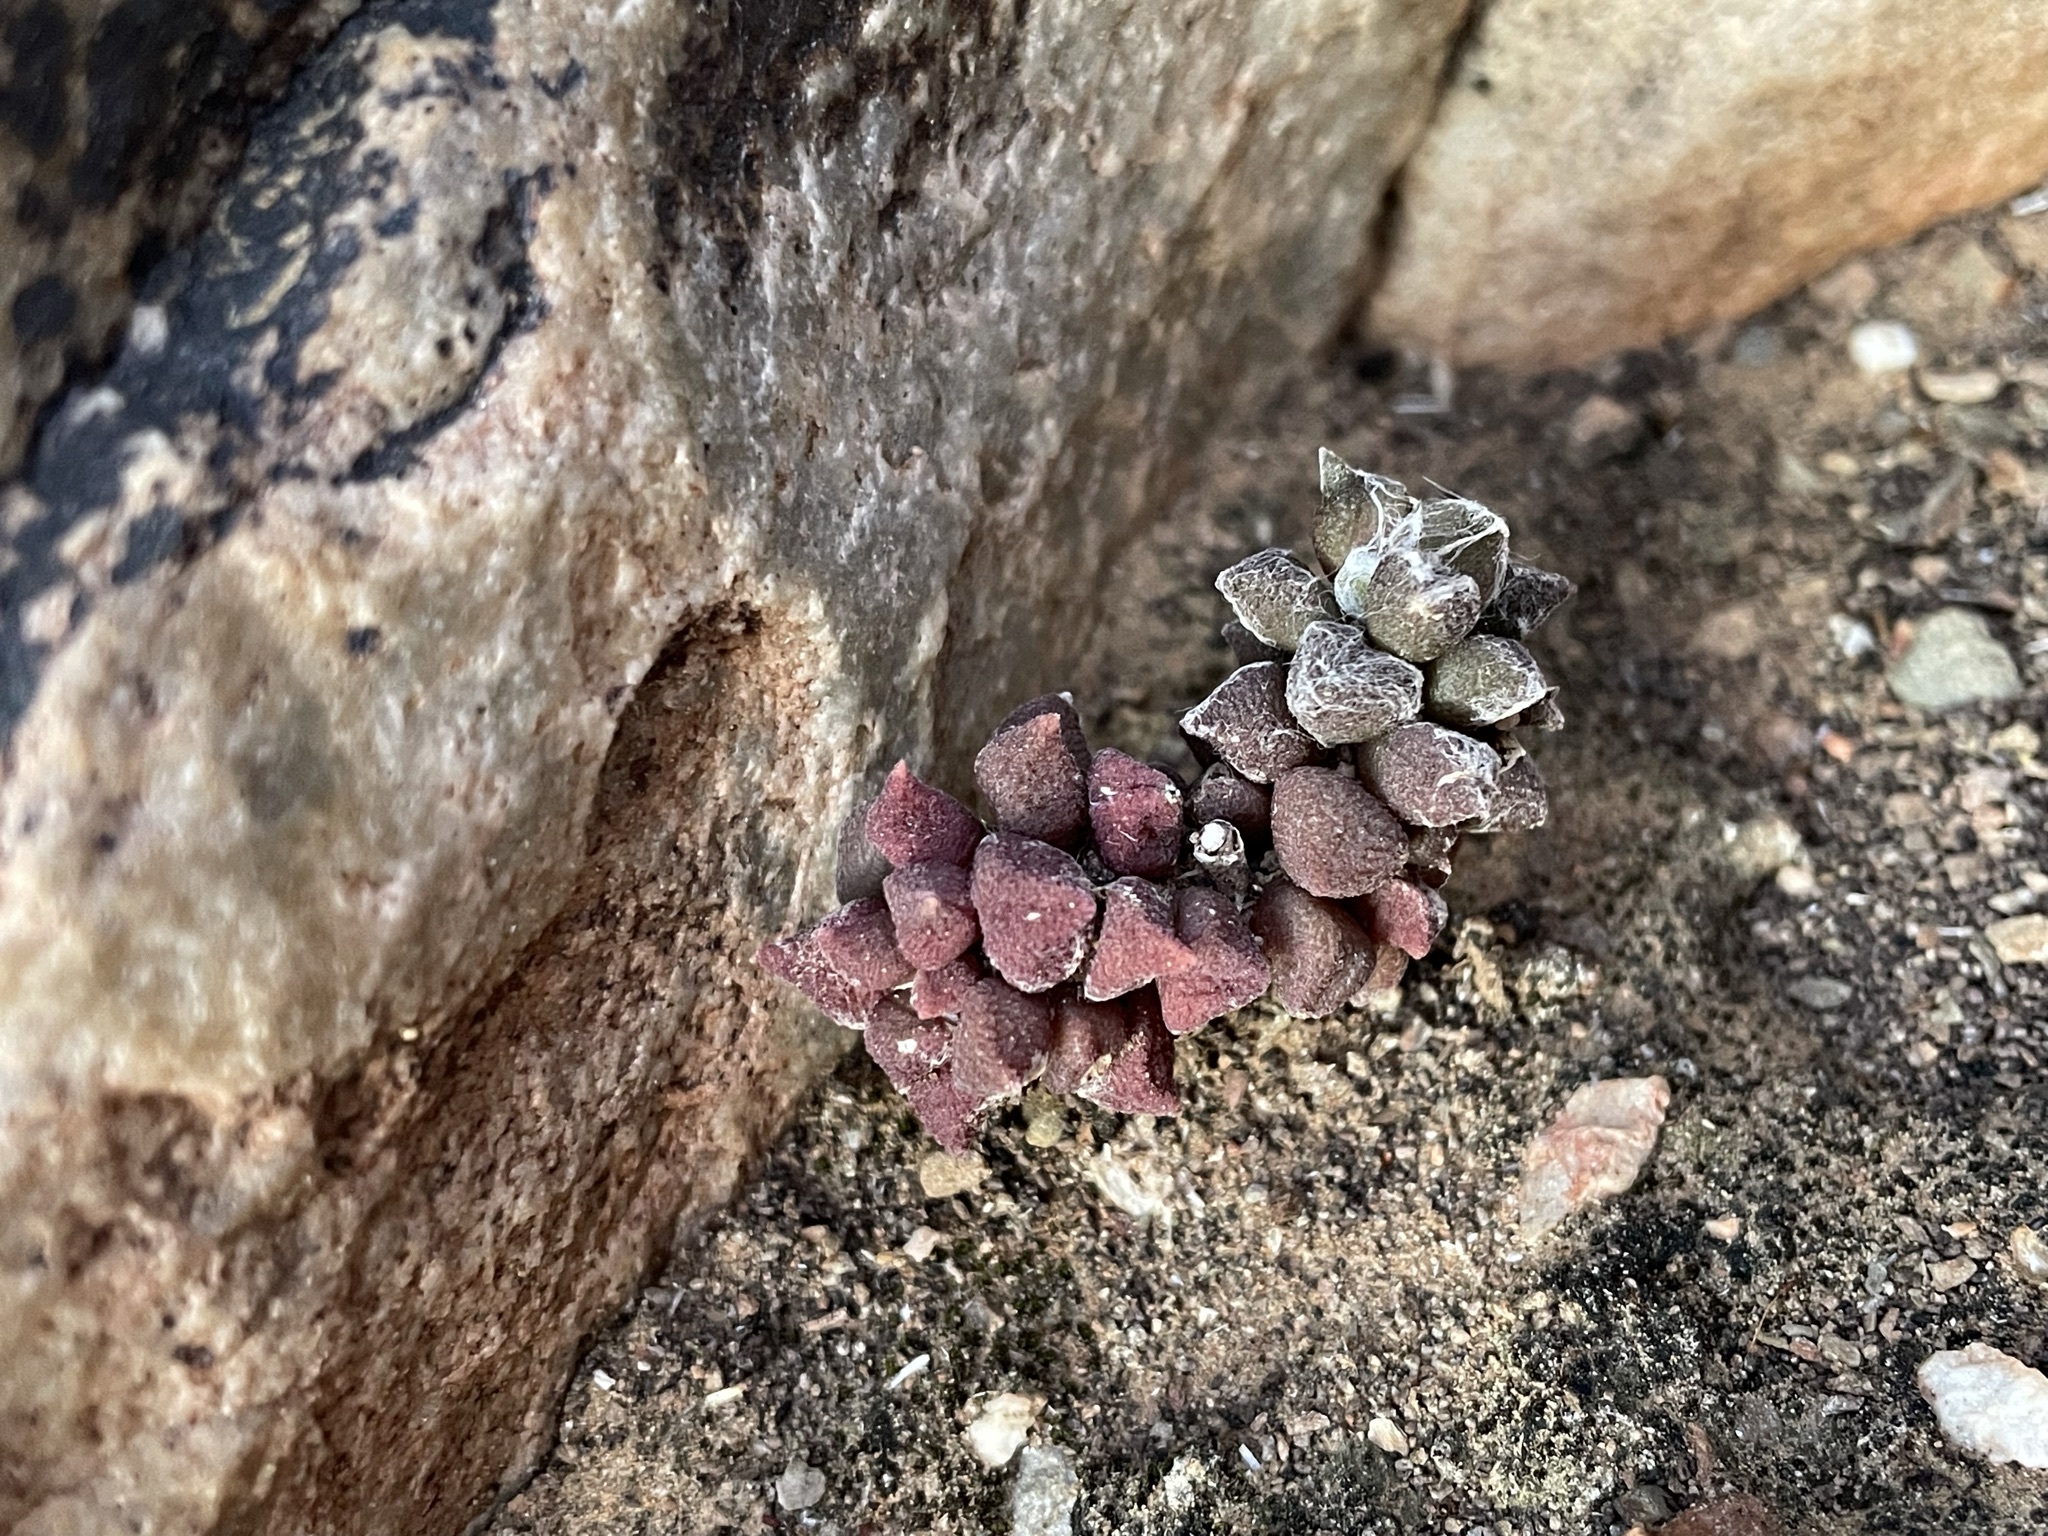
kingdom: Plantae
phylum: Tracheophyta
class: Magnoliopsida
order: Caryophyllales
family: Anacampserotaceae
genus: Anacampseros
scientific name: Anacampseros arachnoides
